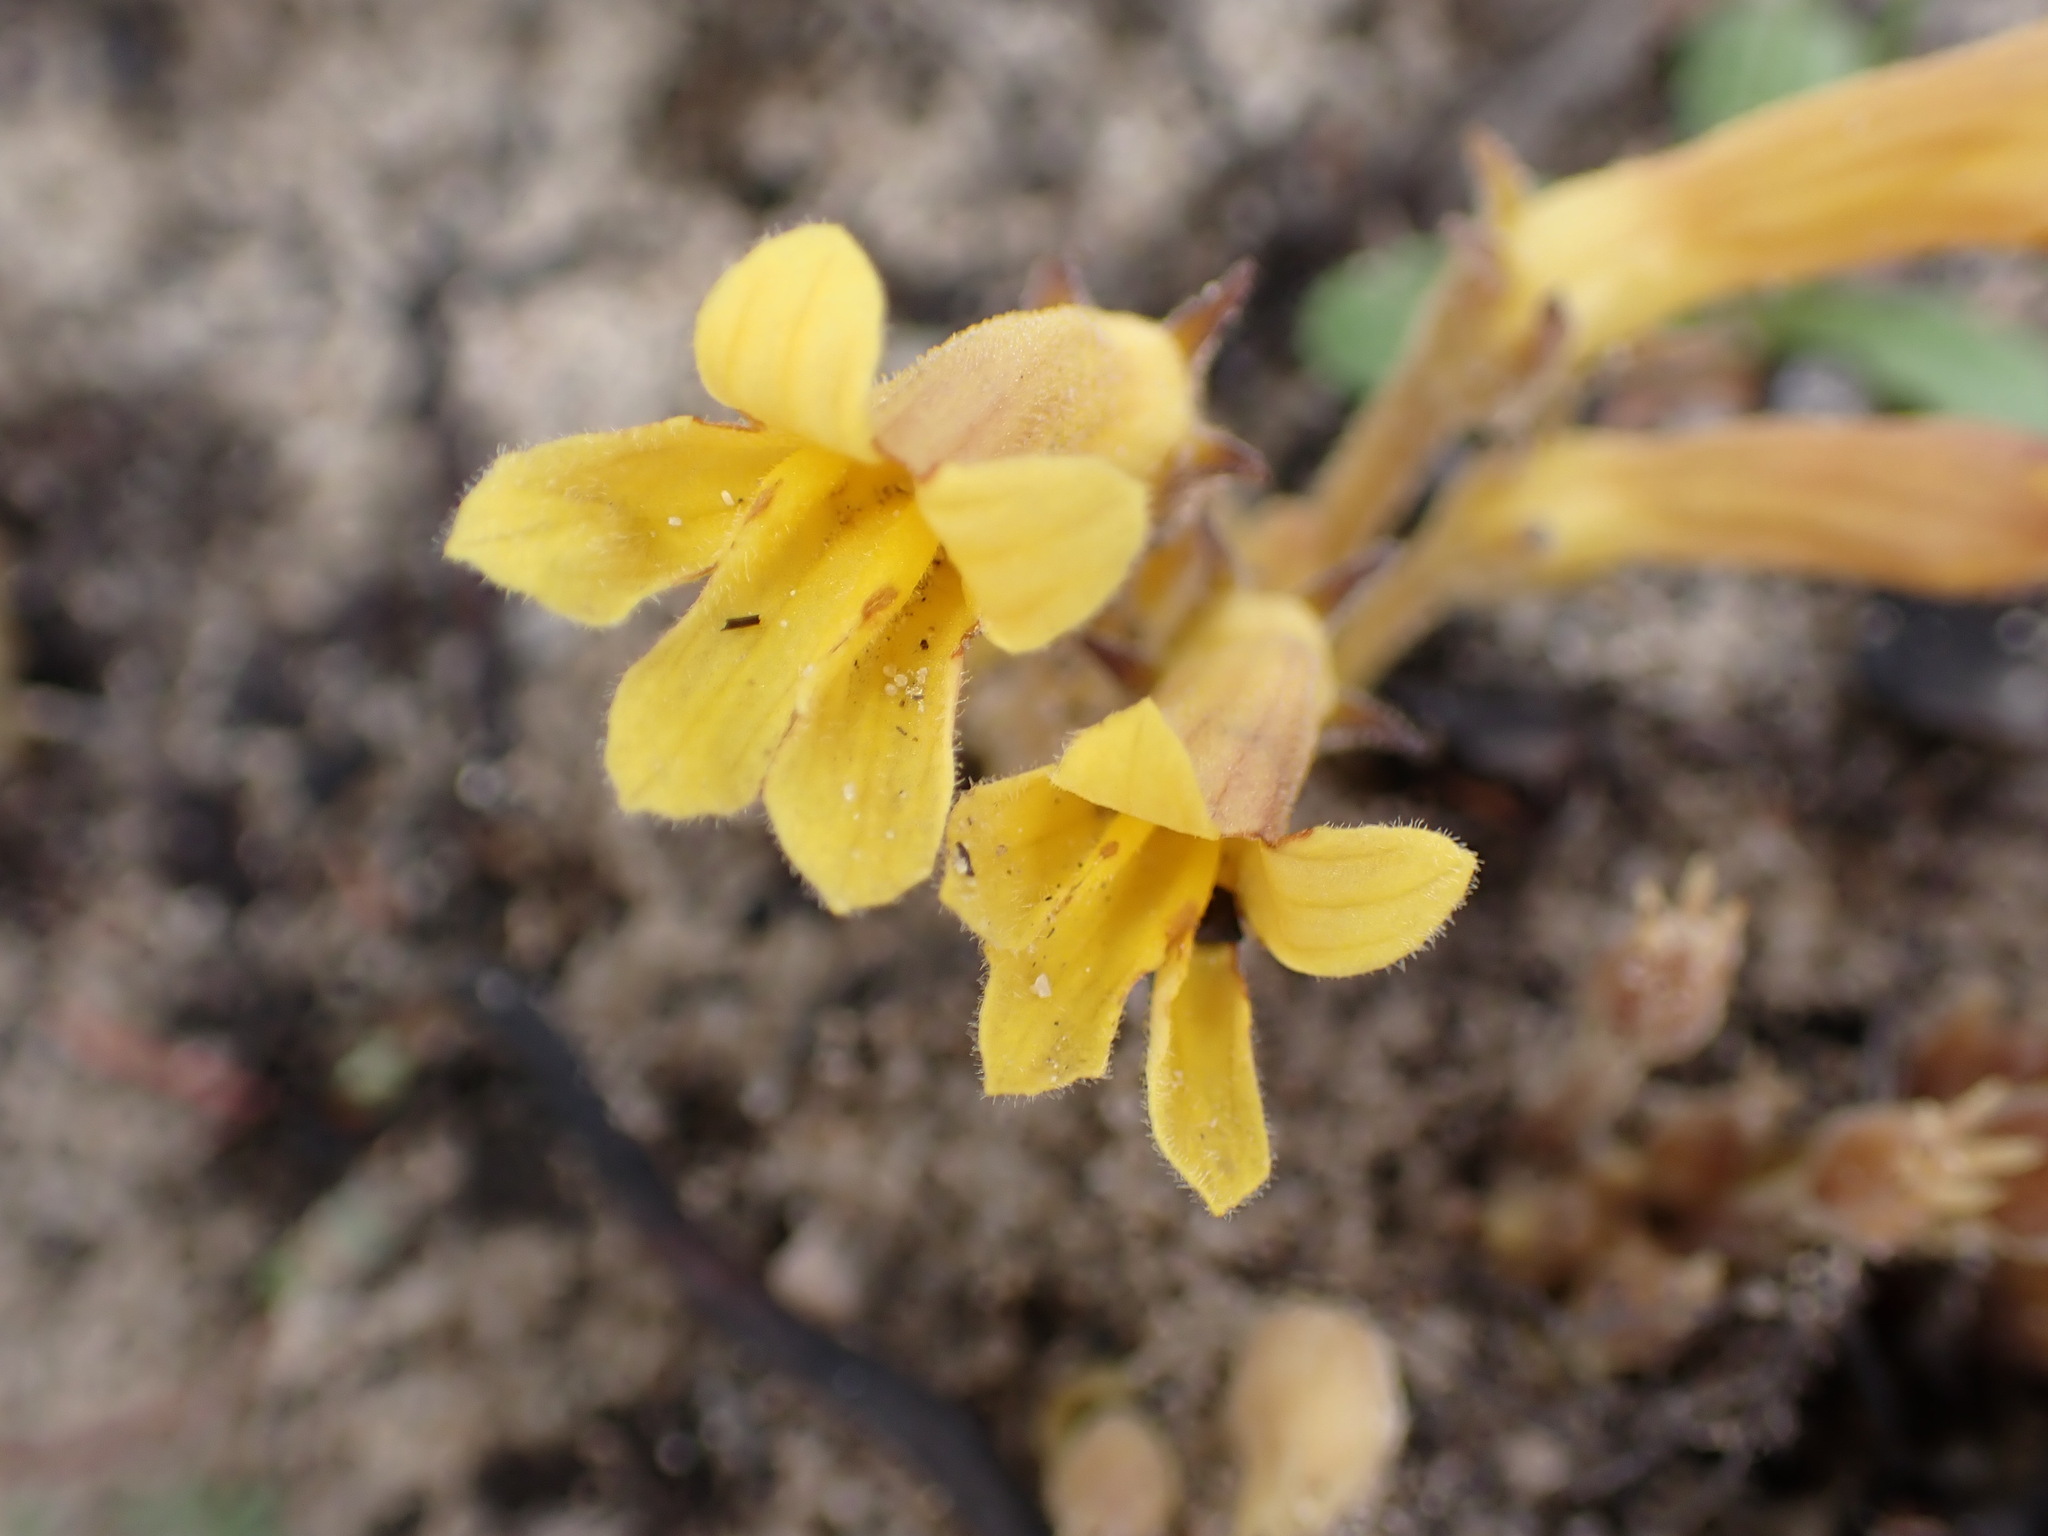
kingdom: Plantae
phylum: Tracheophyta
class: Magnoliopsida
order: Lamiales
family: Orobanchaceae
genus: Aphyllon
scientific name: Aphyllon franciscanum
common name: San francisco broomrape
